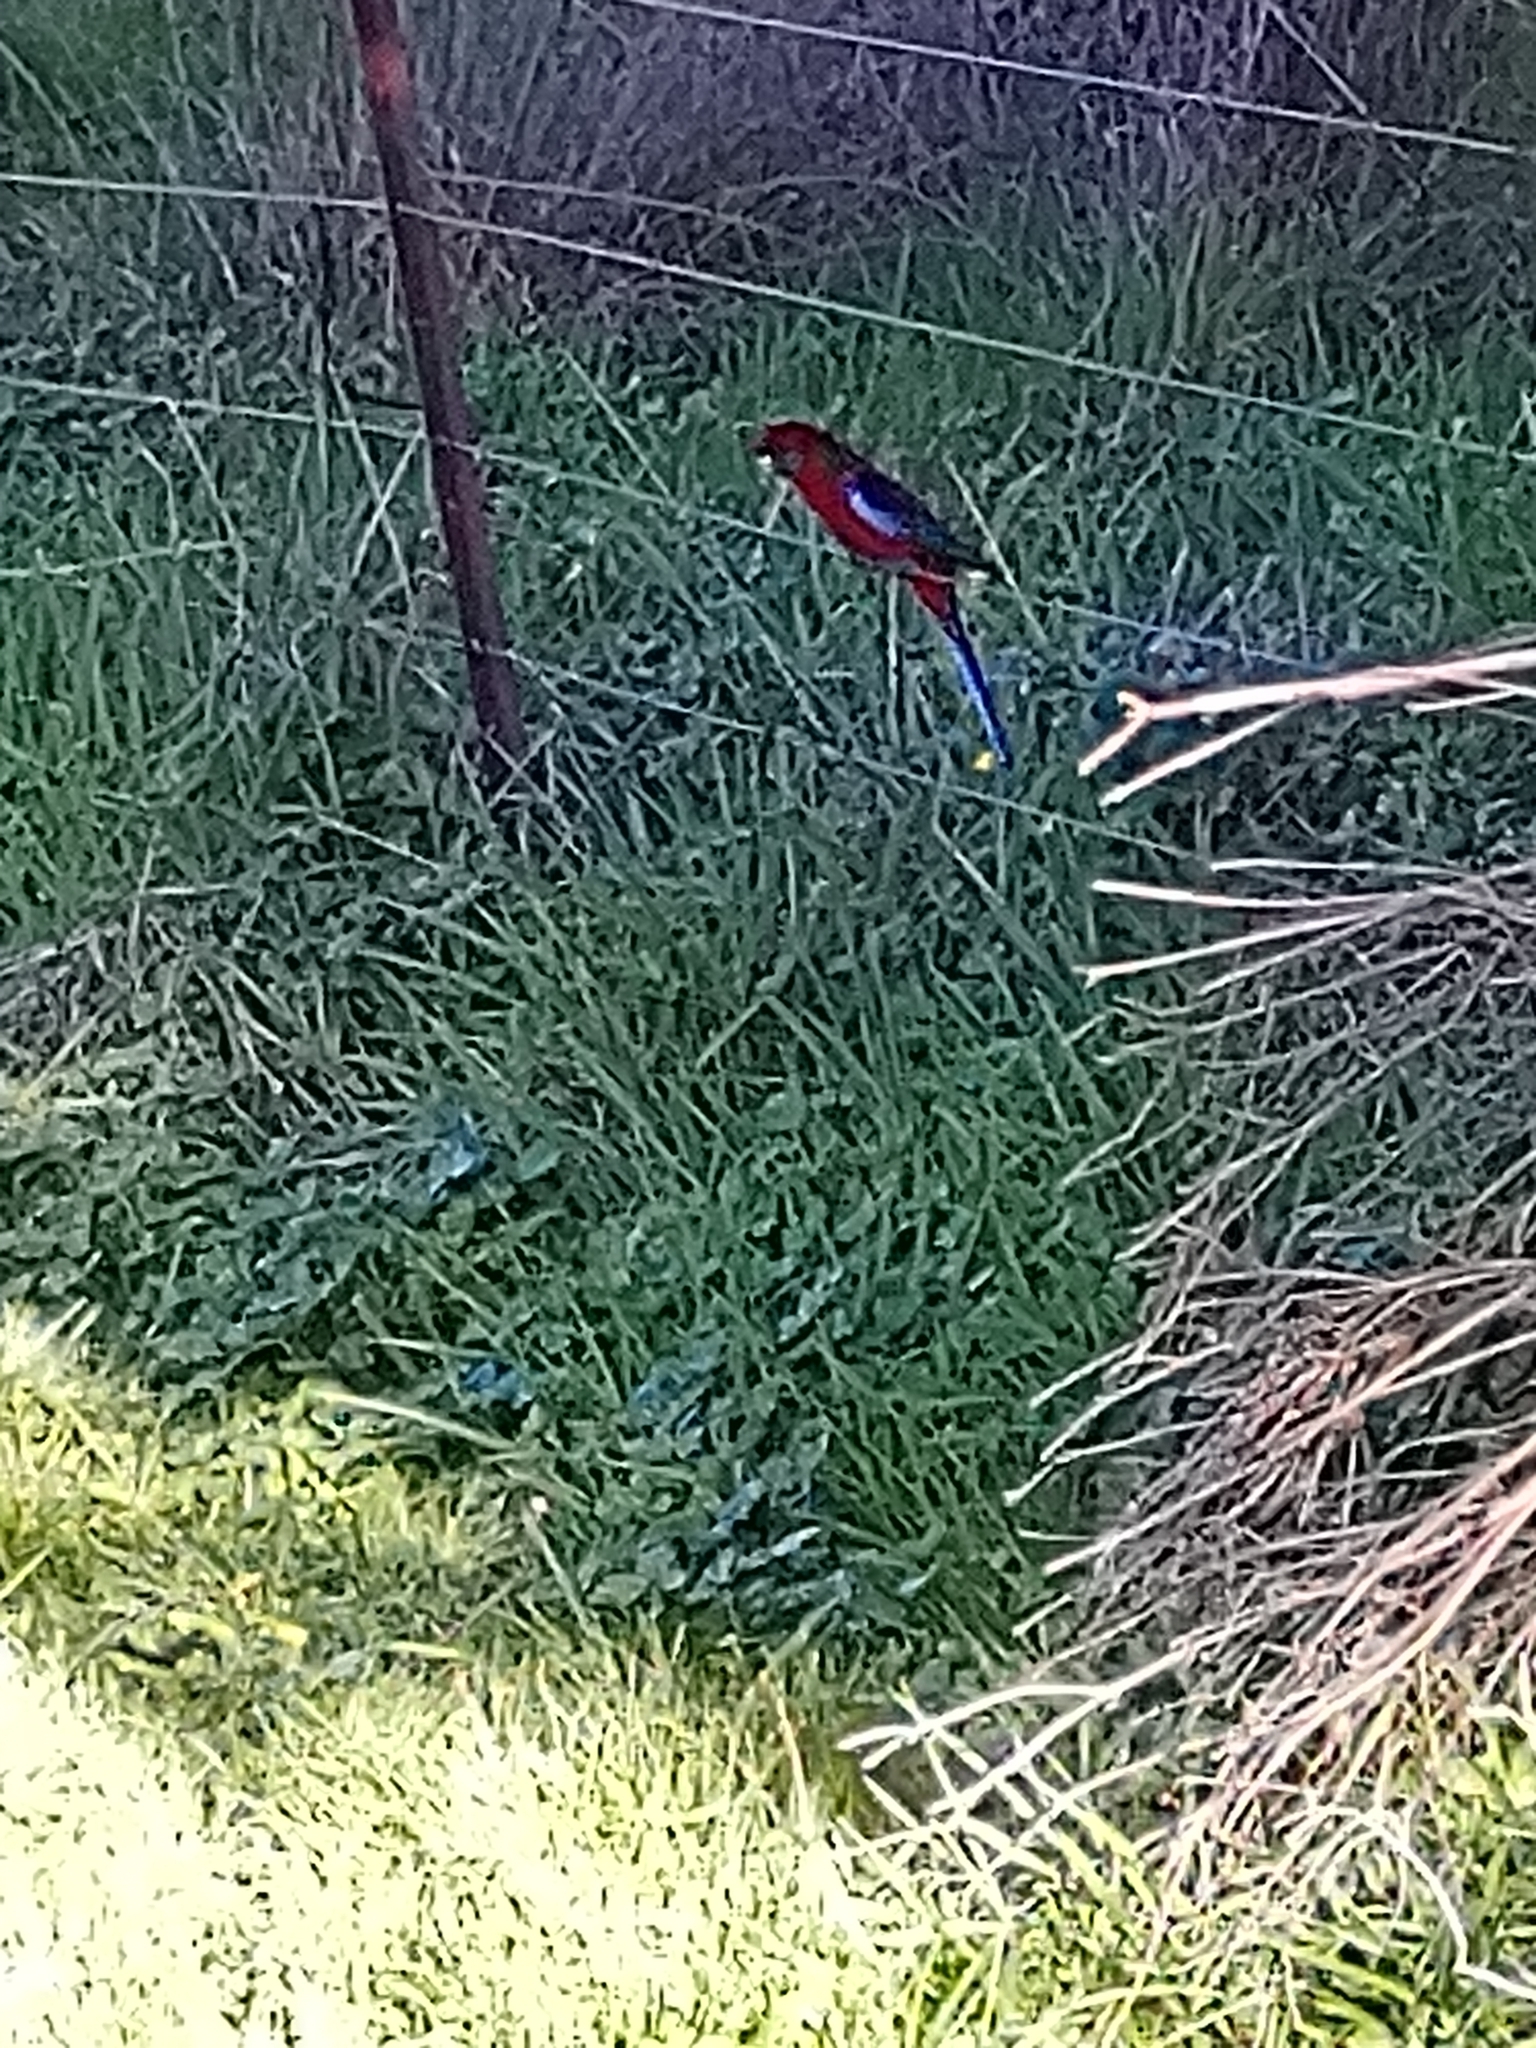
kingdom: Animalia
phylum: Chordata
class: Aves
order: Psittaciformes
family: Psittacidae
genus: Platycercus
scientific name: Platycercus elegans
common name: Crimson rosella
